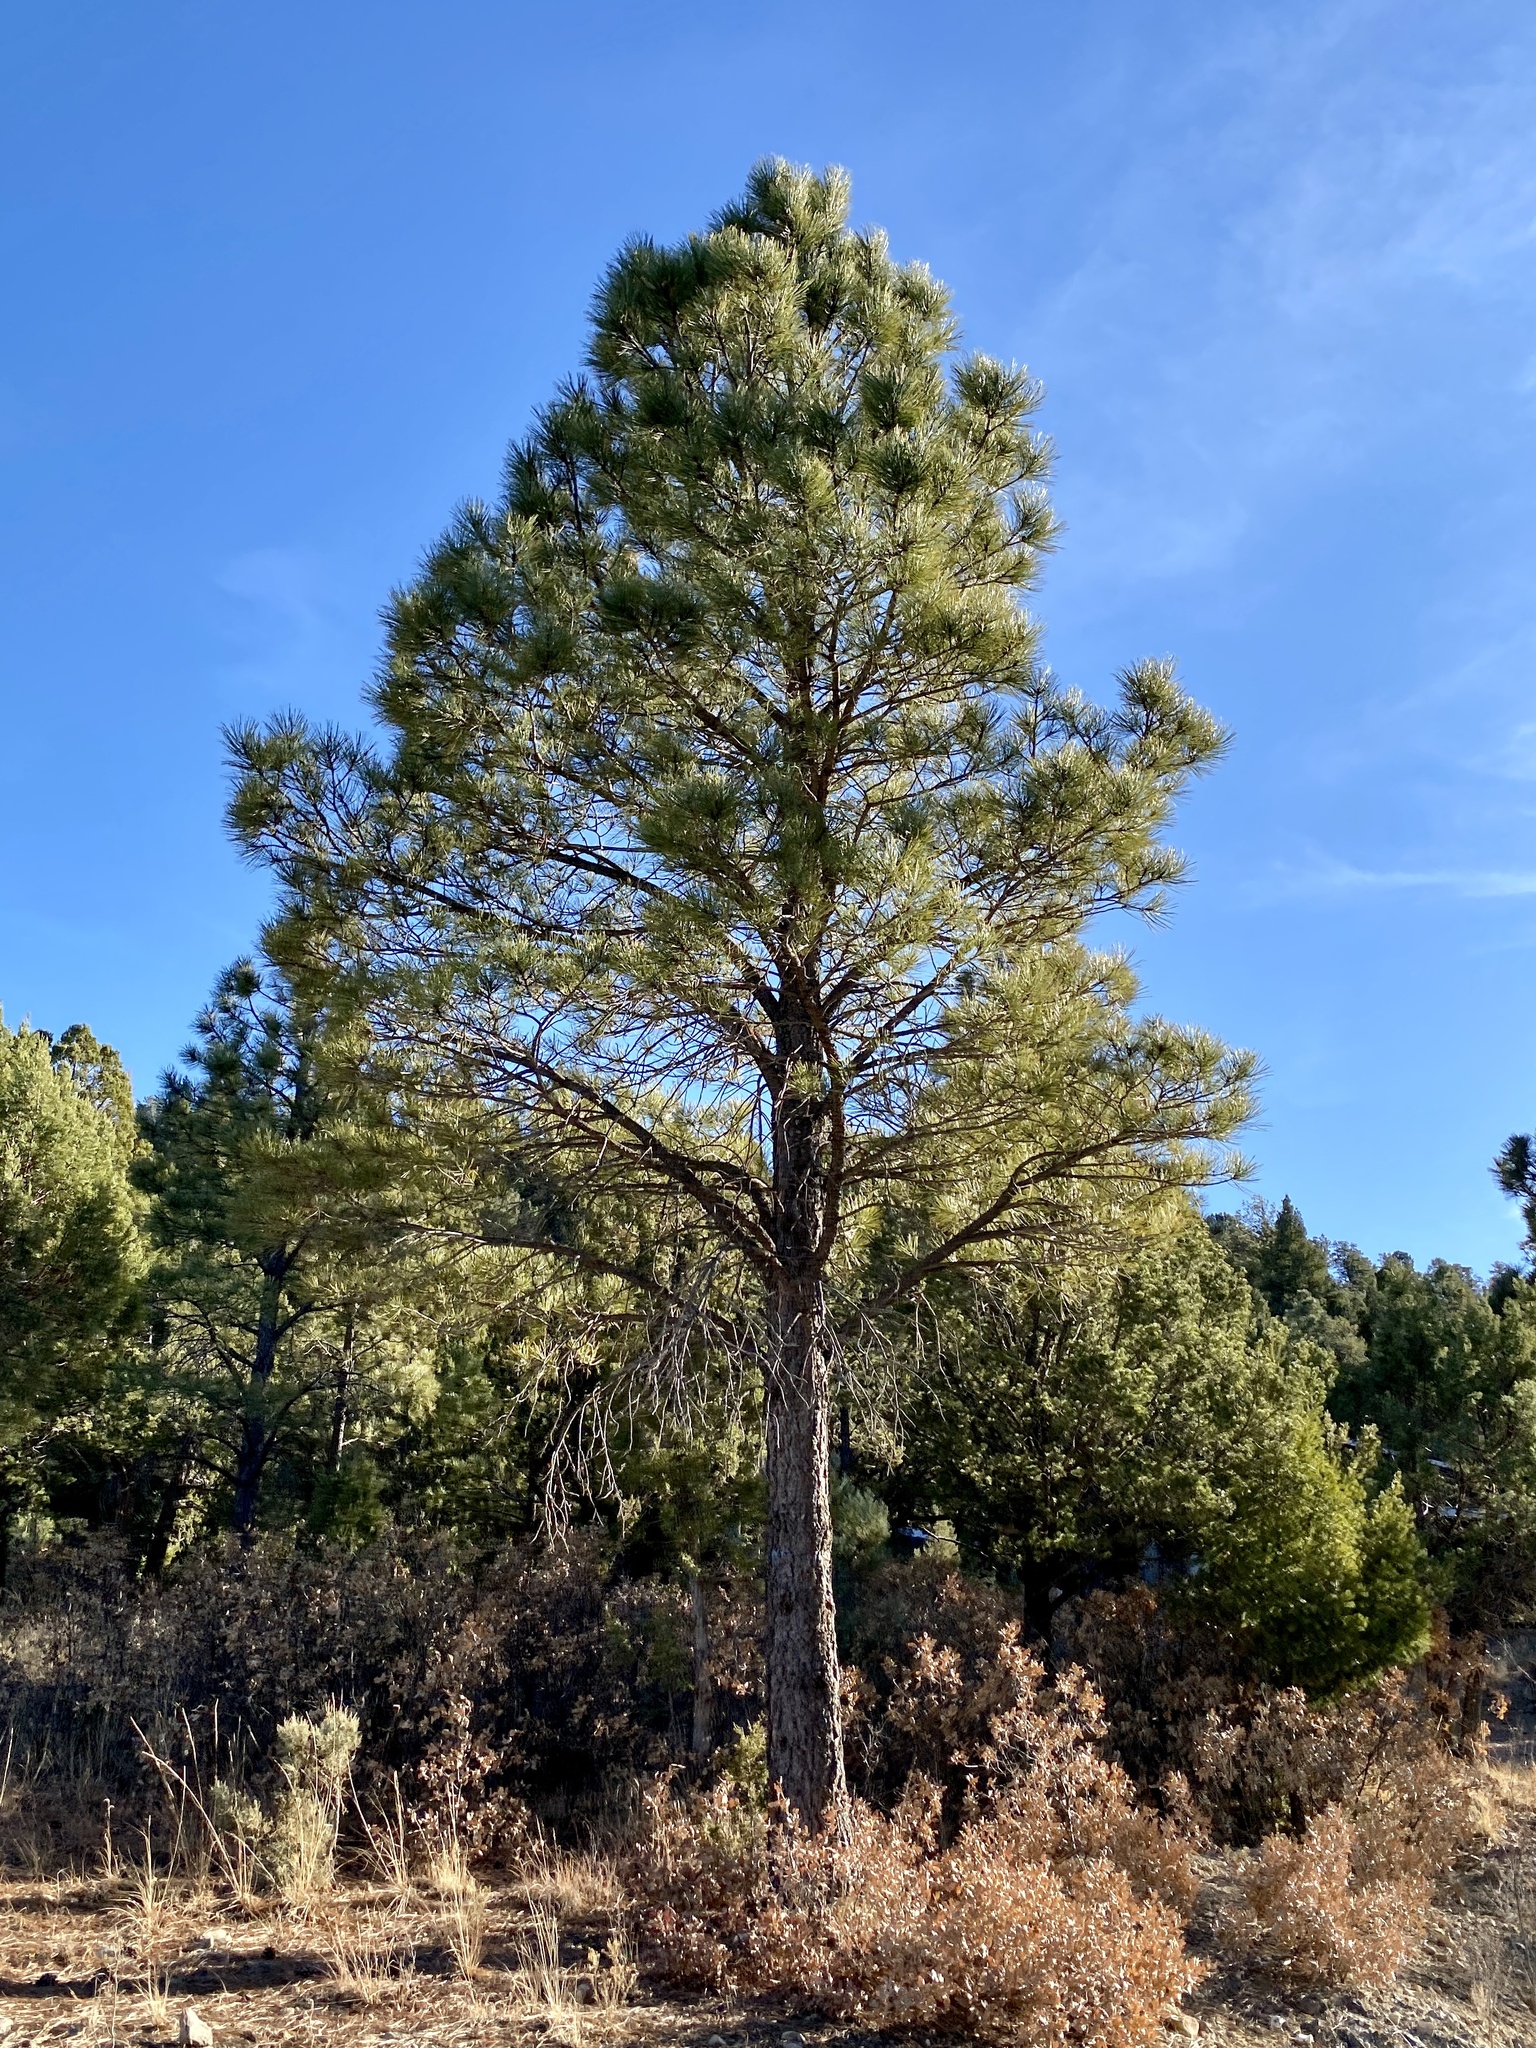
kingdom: Plantae
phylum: Tracheophyta
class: Pinopsida
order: Pinales
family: Pinaceae
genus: Pinus
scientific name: Pinus ponderosa
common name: Western yellow-pine
